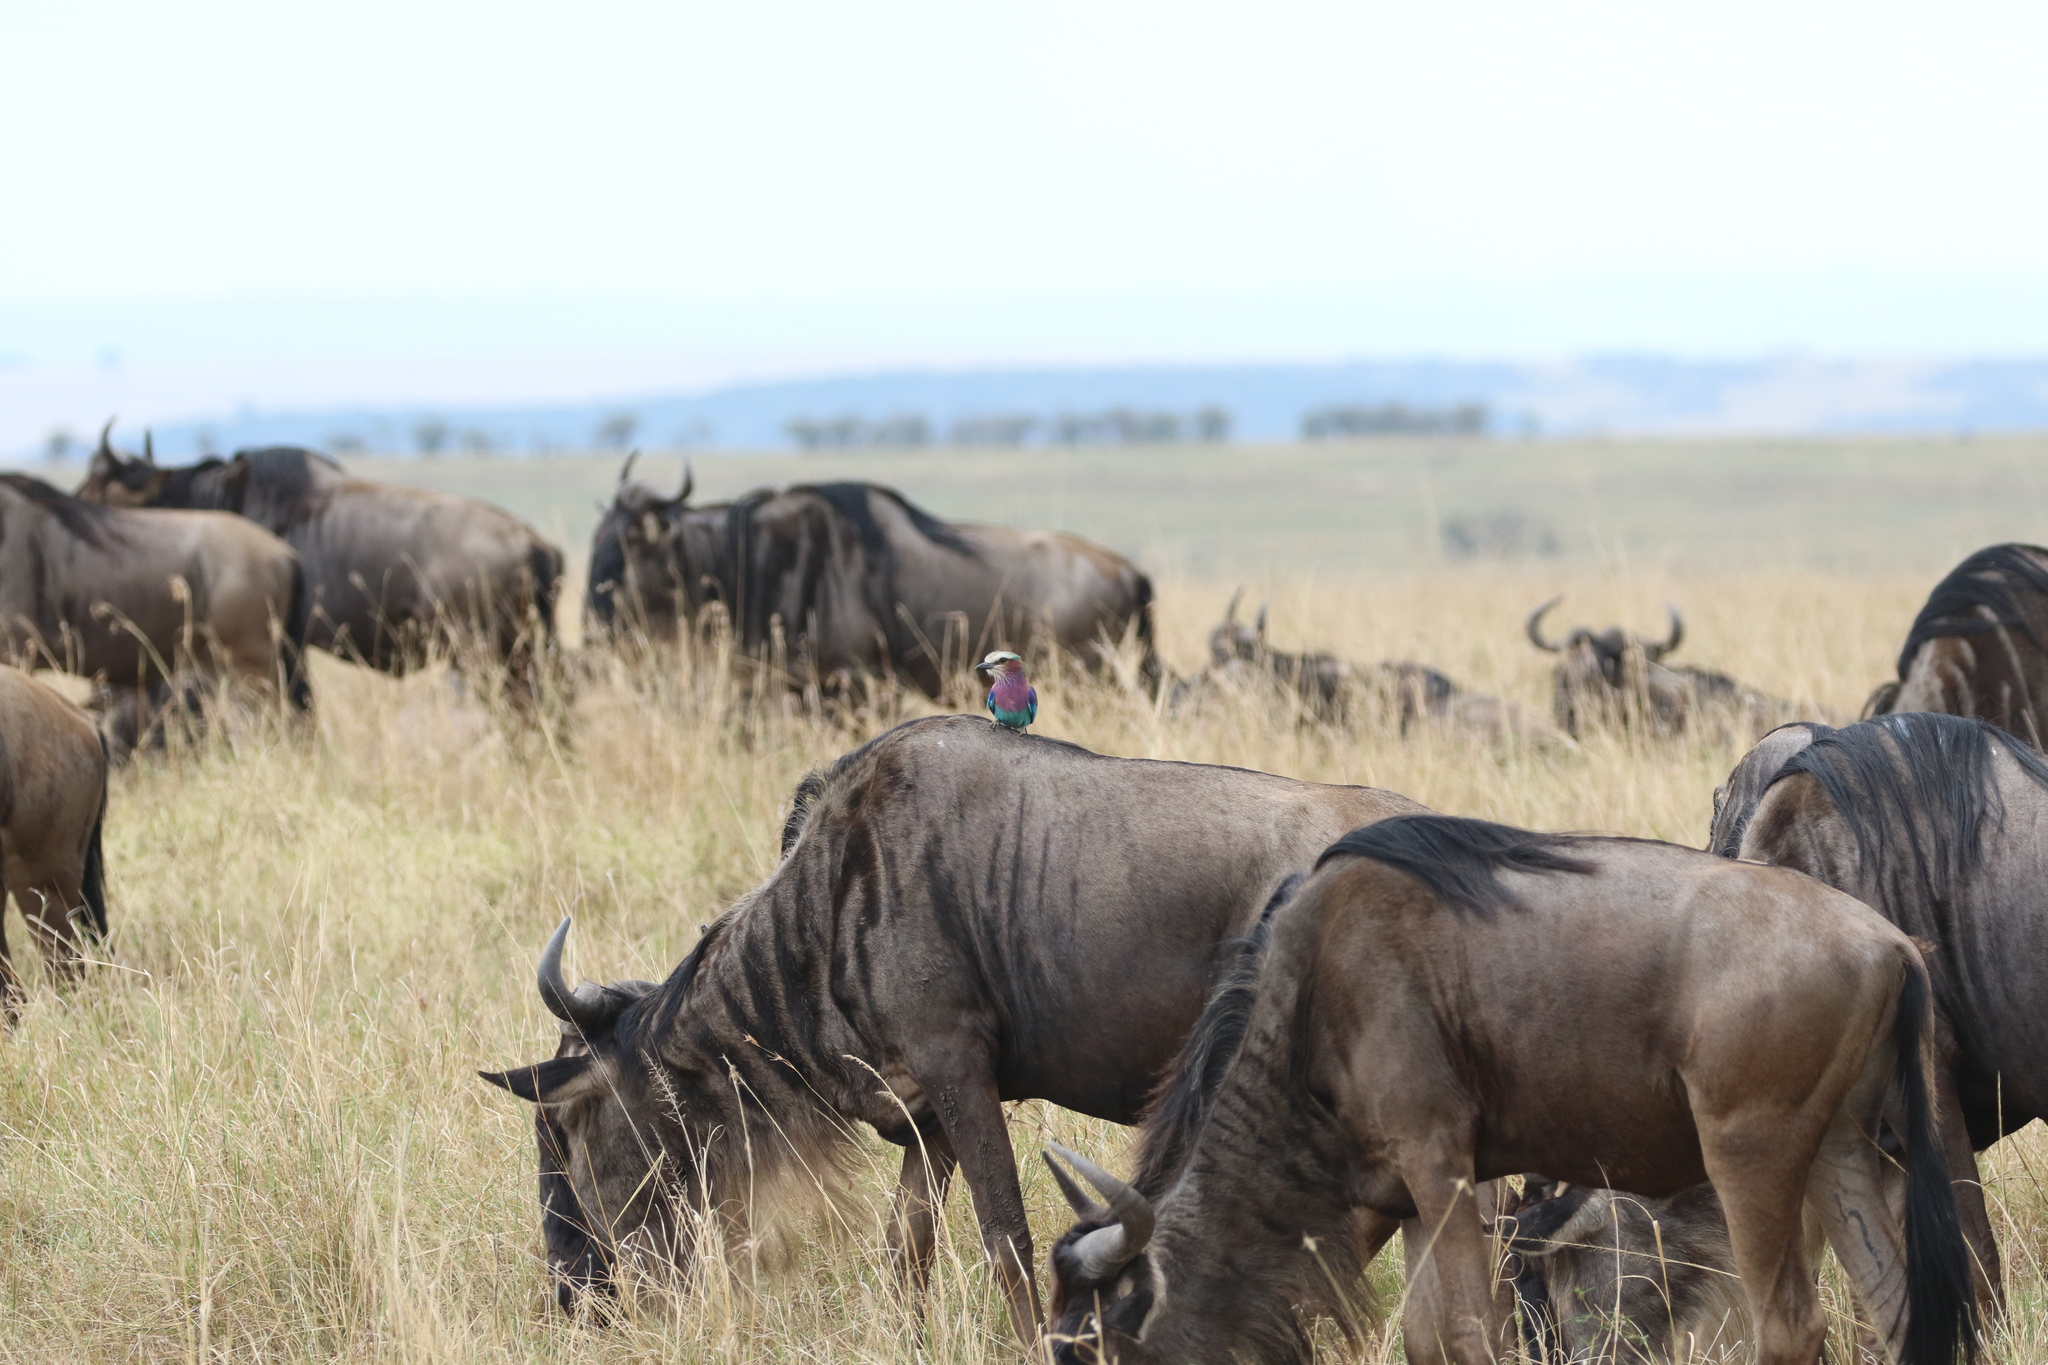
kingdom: Animalia
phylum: Chordata
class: Aves
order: Coraciiformes
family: Coraciidae
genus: Coracias
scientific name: Coracias caudatus
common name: Lilac-breasted roller
